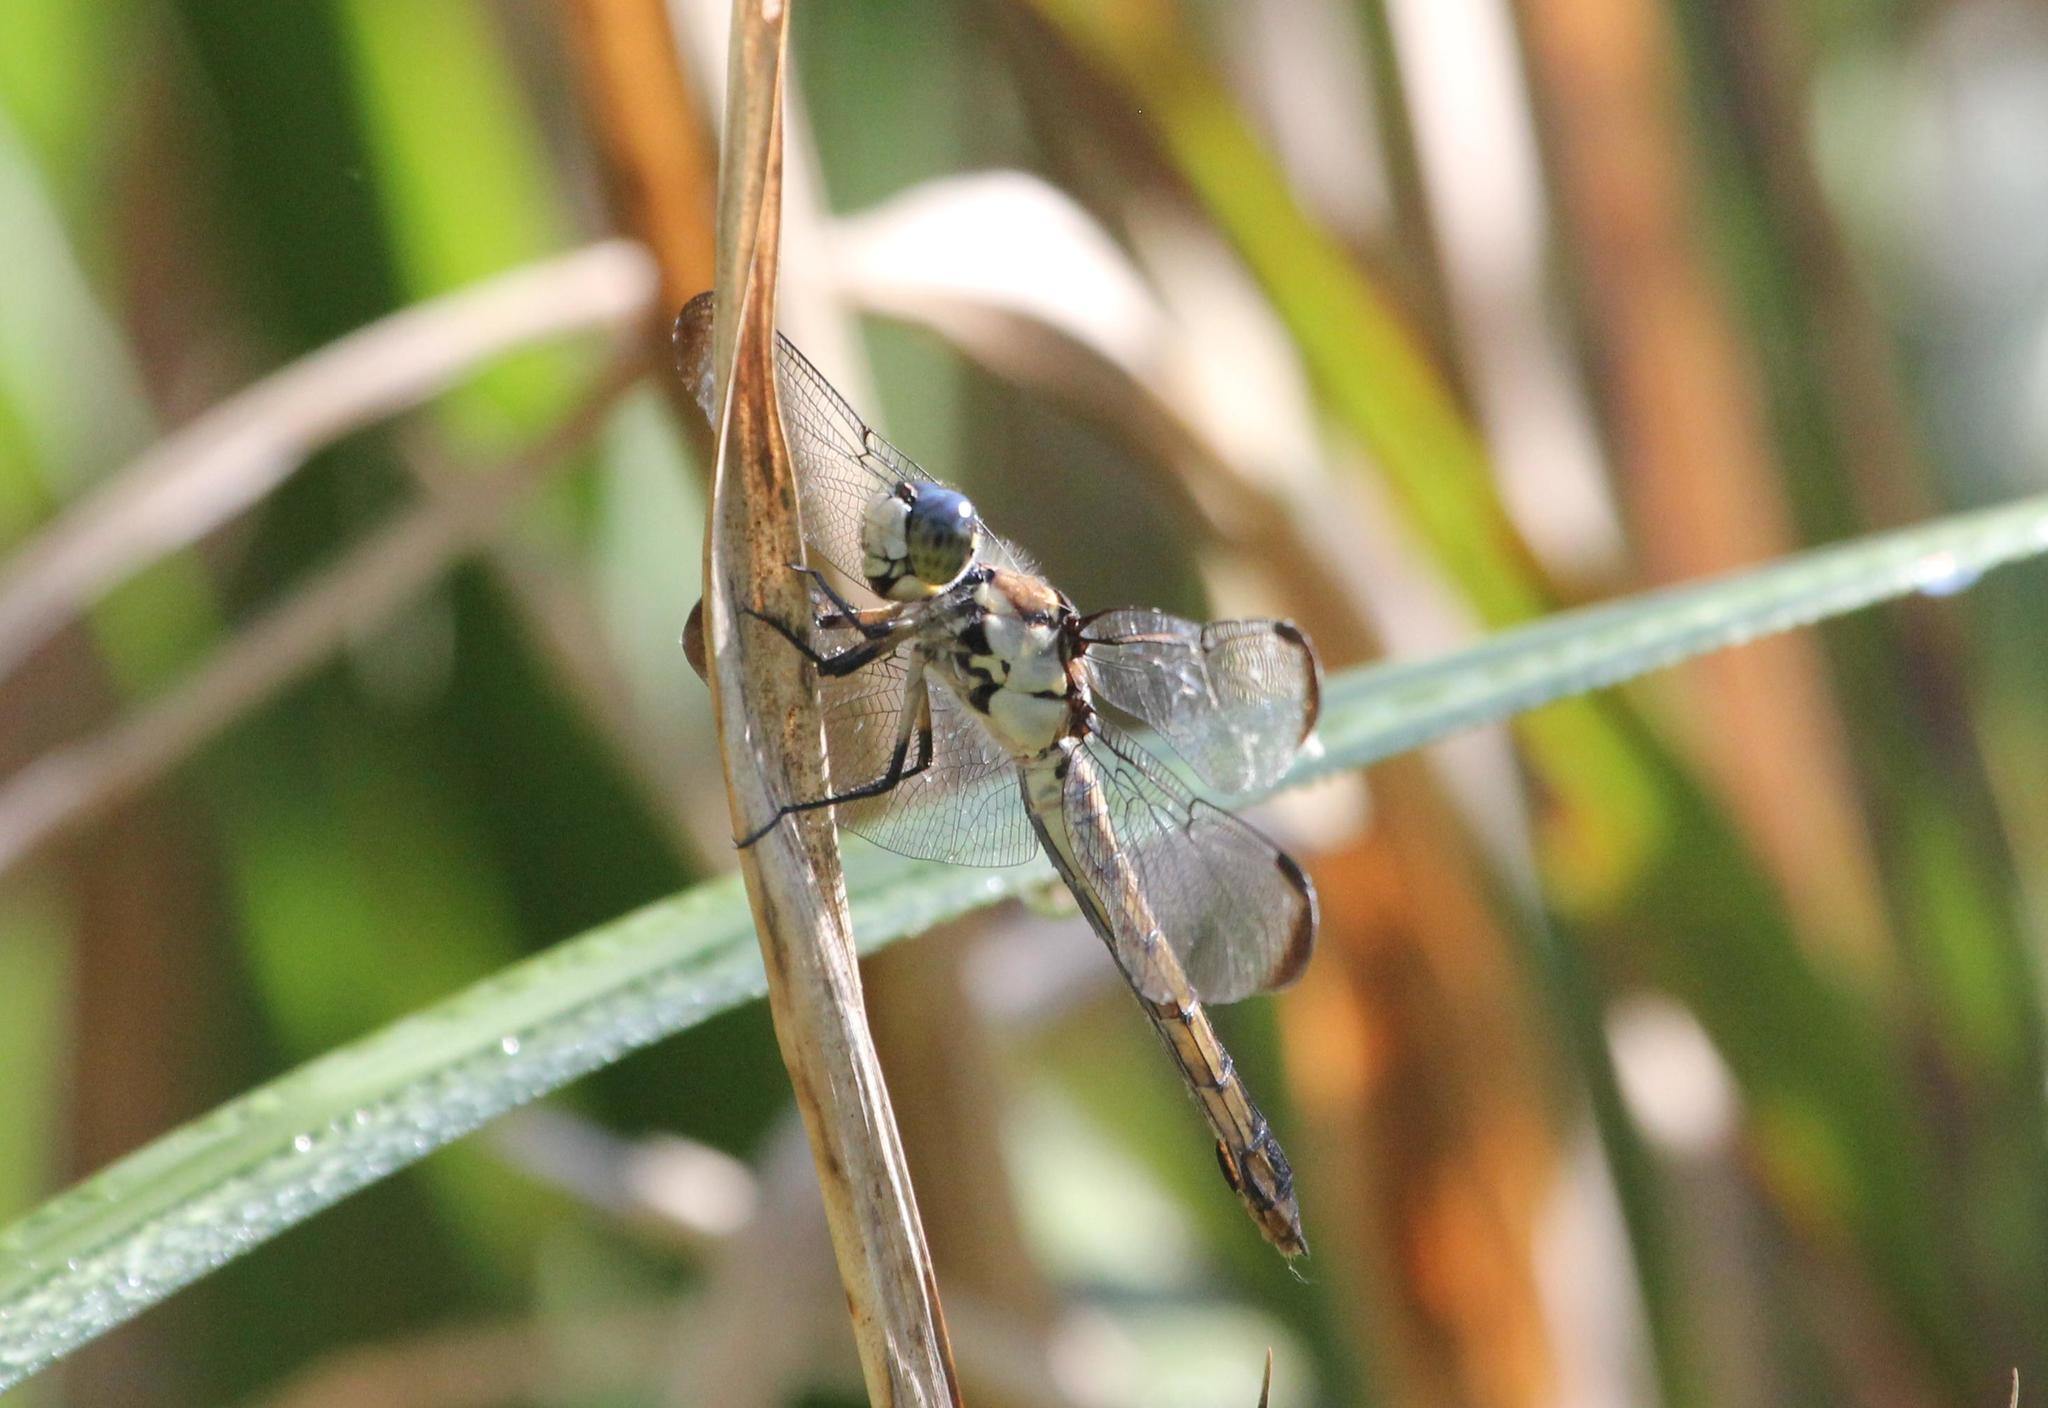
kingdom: Animalia
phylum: Arthropoda
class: Insecta
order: Odonata
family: Libellulidae
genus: Libellula
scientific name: Libellula vibrans
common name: Great blue skimmer
